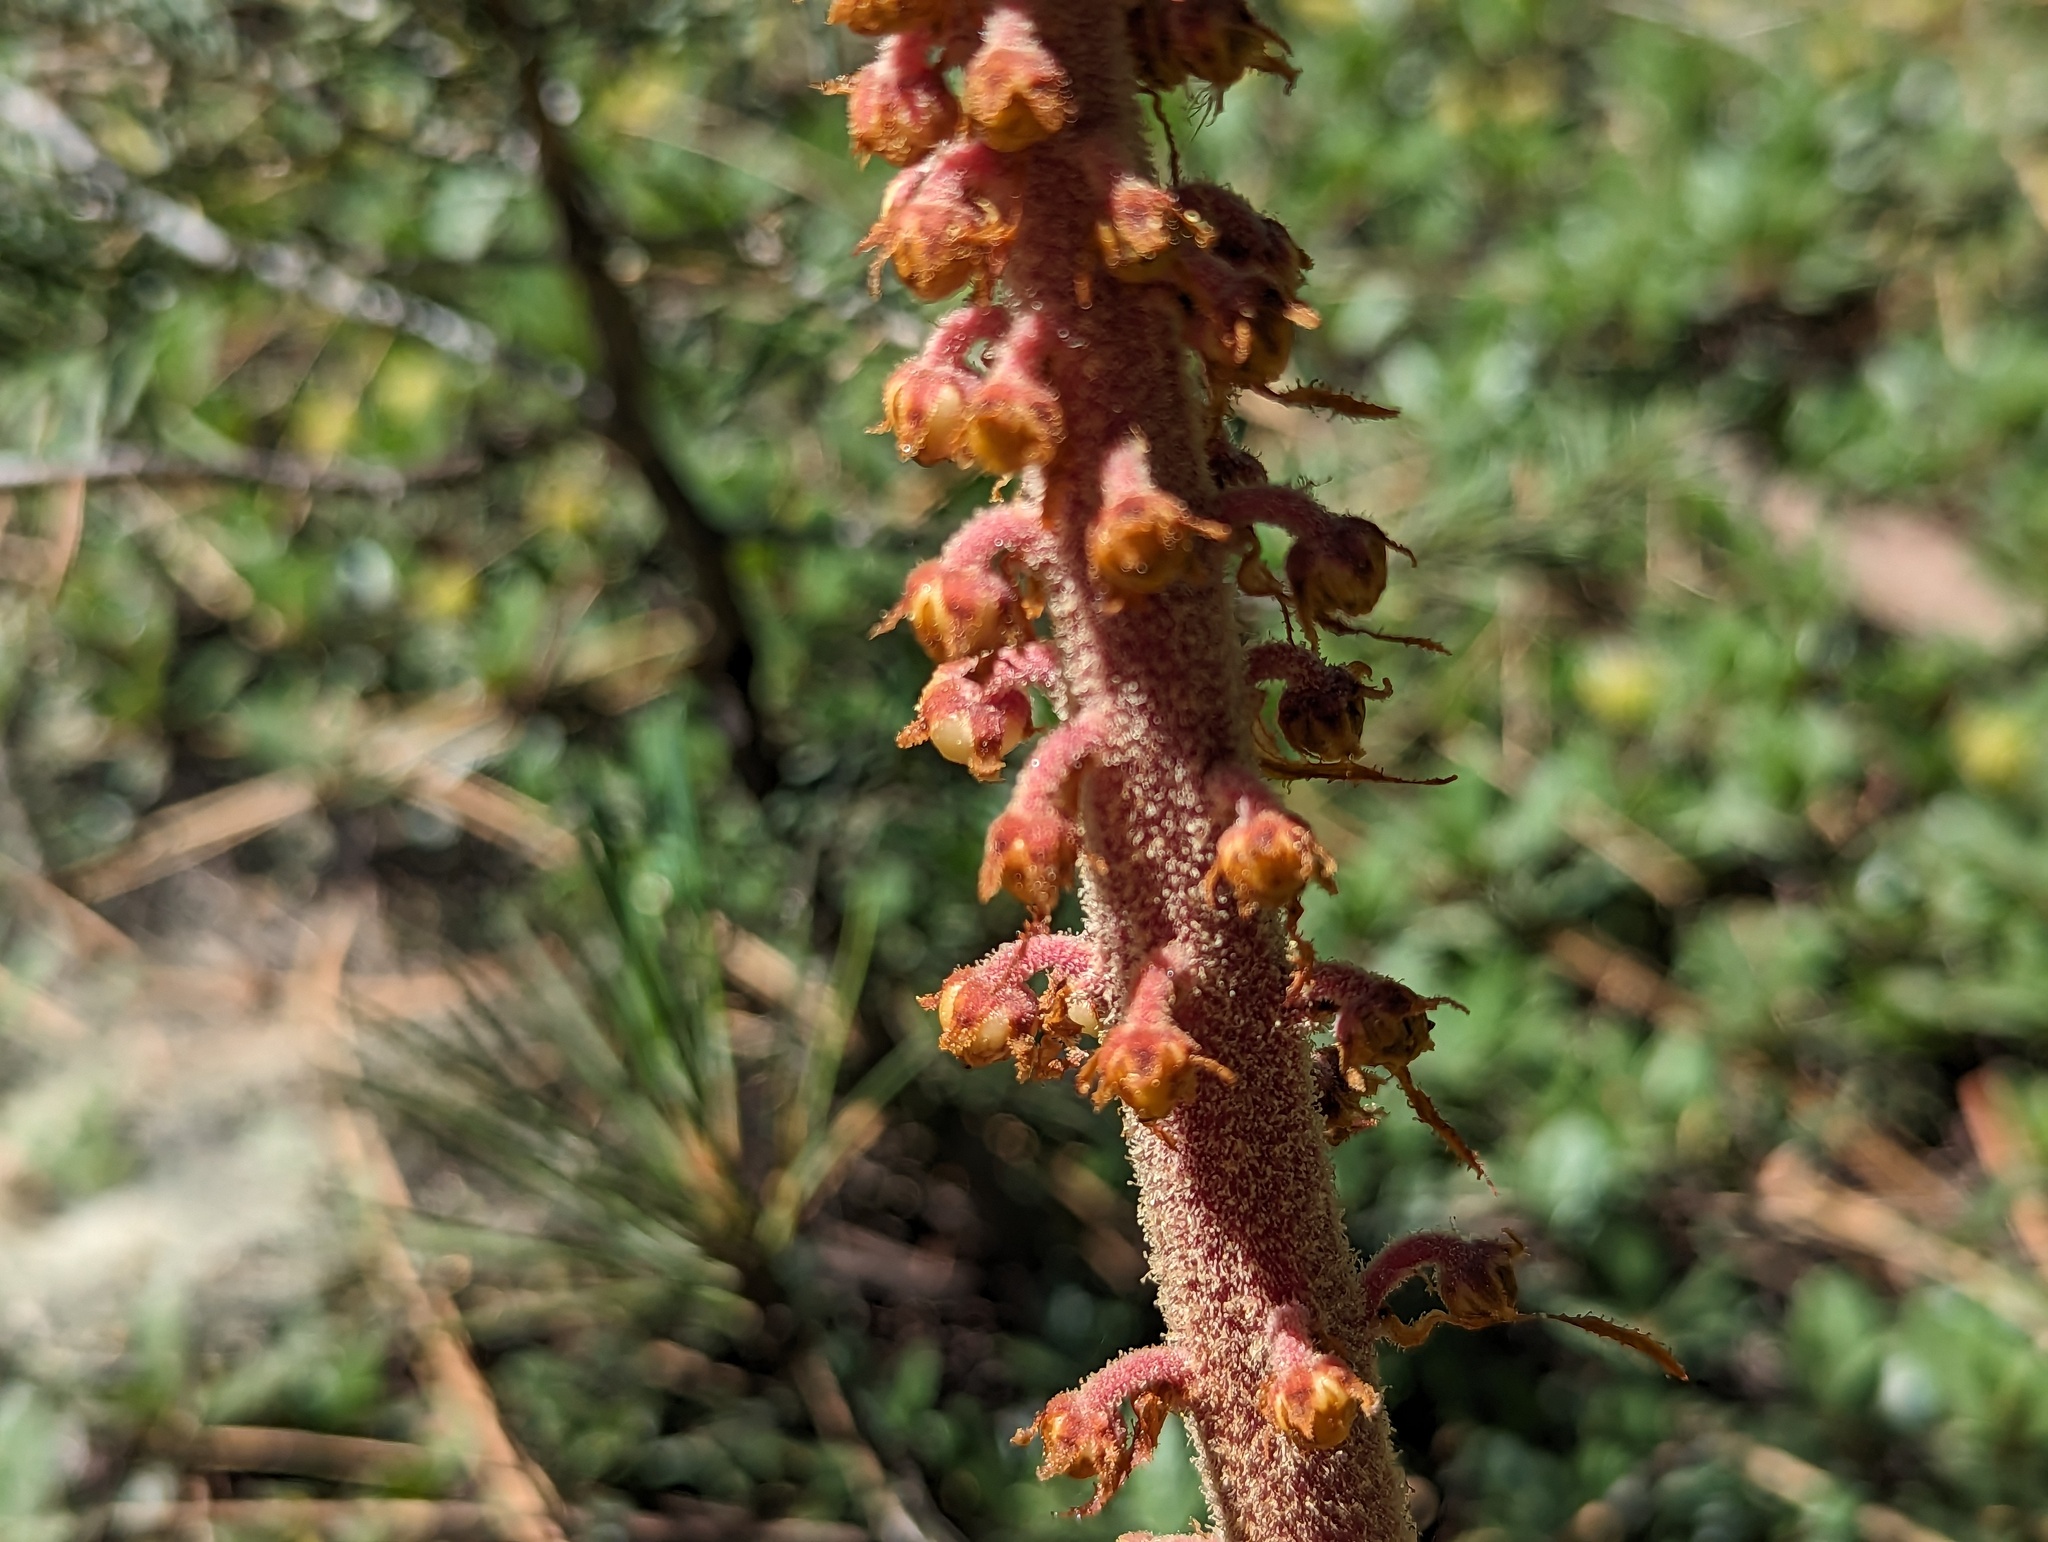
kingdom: Plantae
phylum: Tracheophyta
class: Magnoliopsida
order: Ericales
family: Ericaceae
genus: Pterospora
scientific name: Pterospora andromedea
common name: Giant bird's-nest
